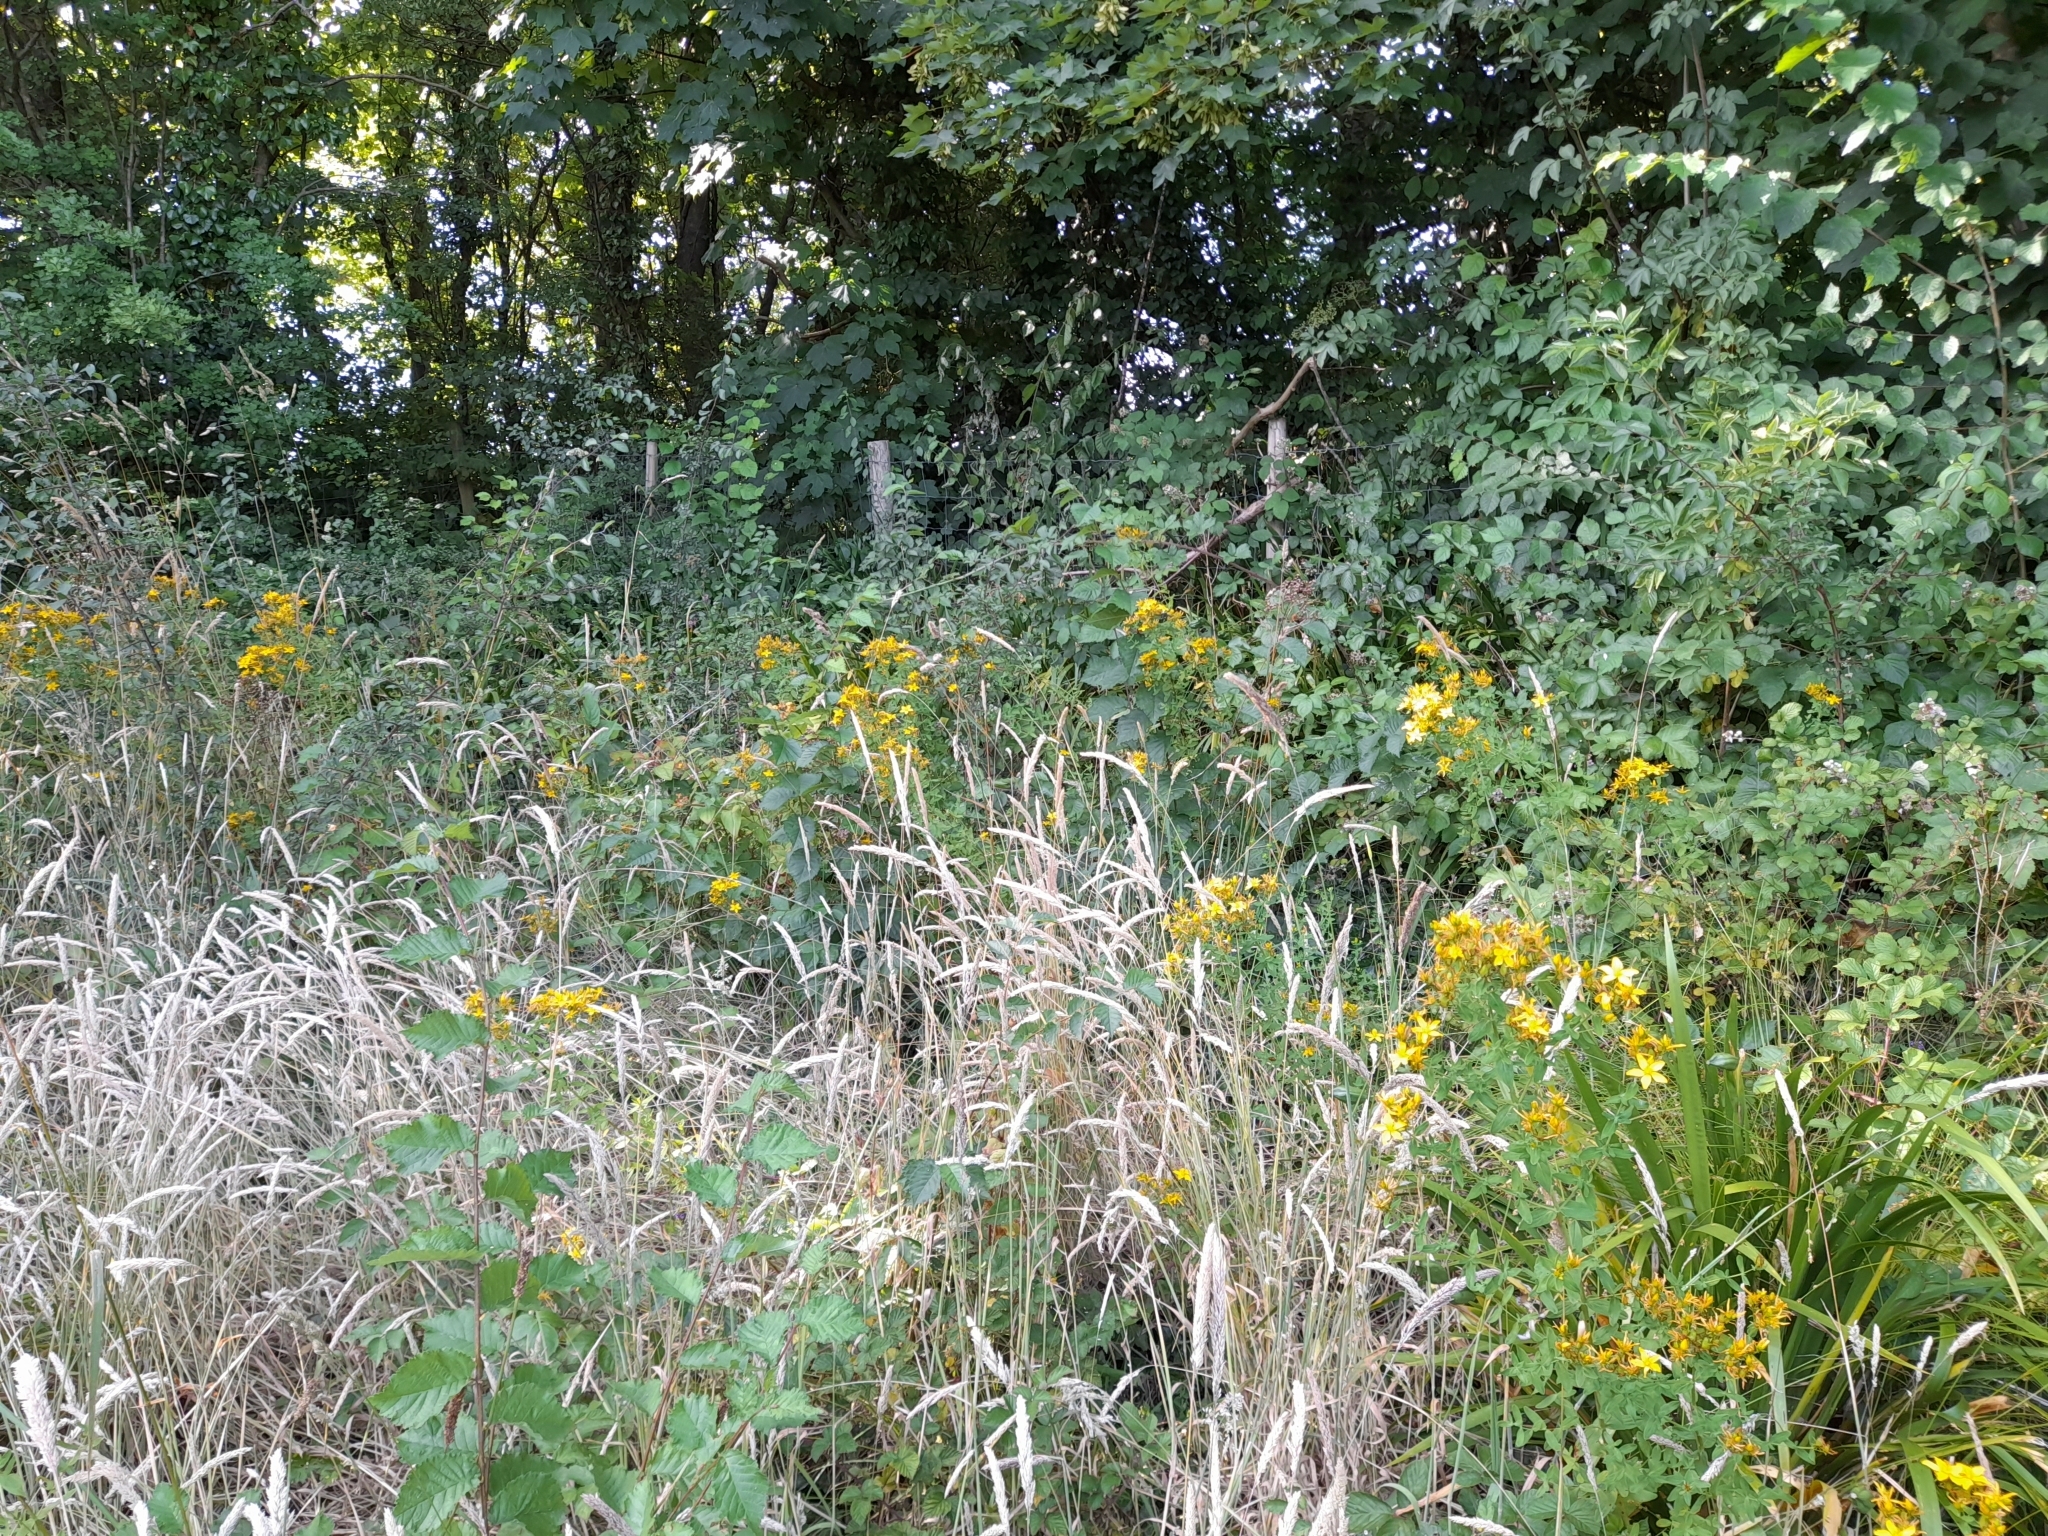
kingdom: Plantae
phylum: Tracheophyta
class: Magnoliopsida
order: Malpighiales
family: Hypericaceae
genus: Hypericum
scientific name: Hypericum perforatum
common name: Common st. johnswort
